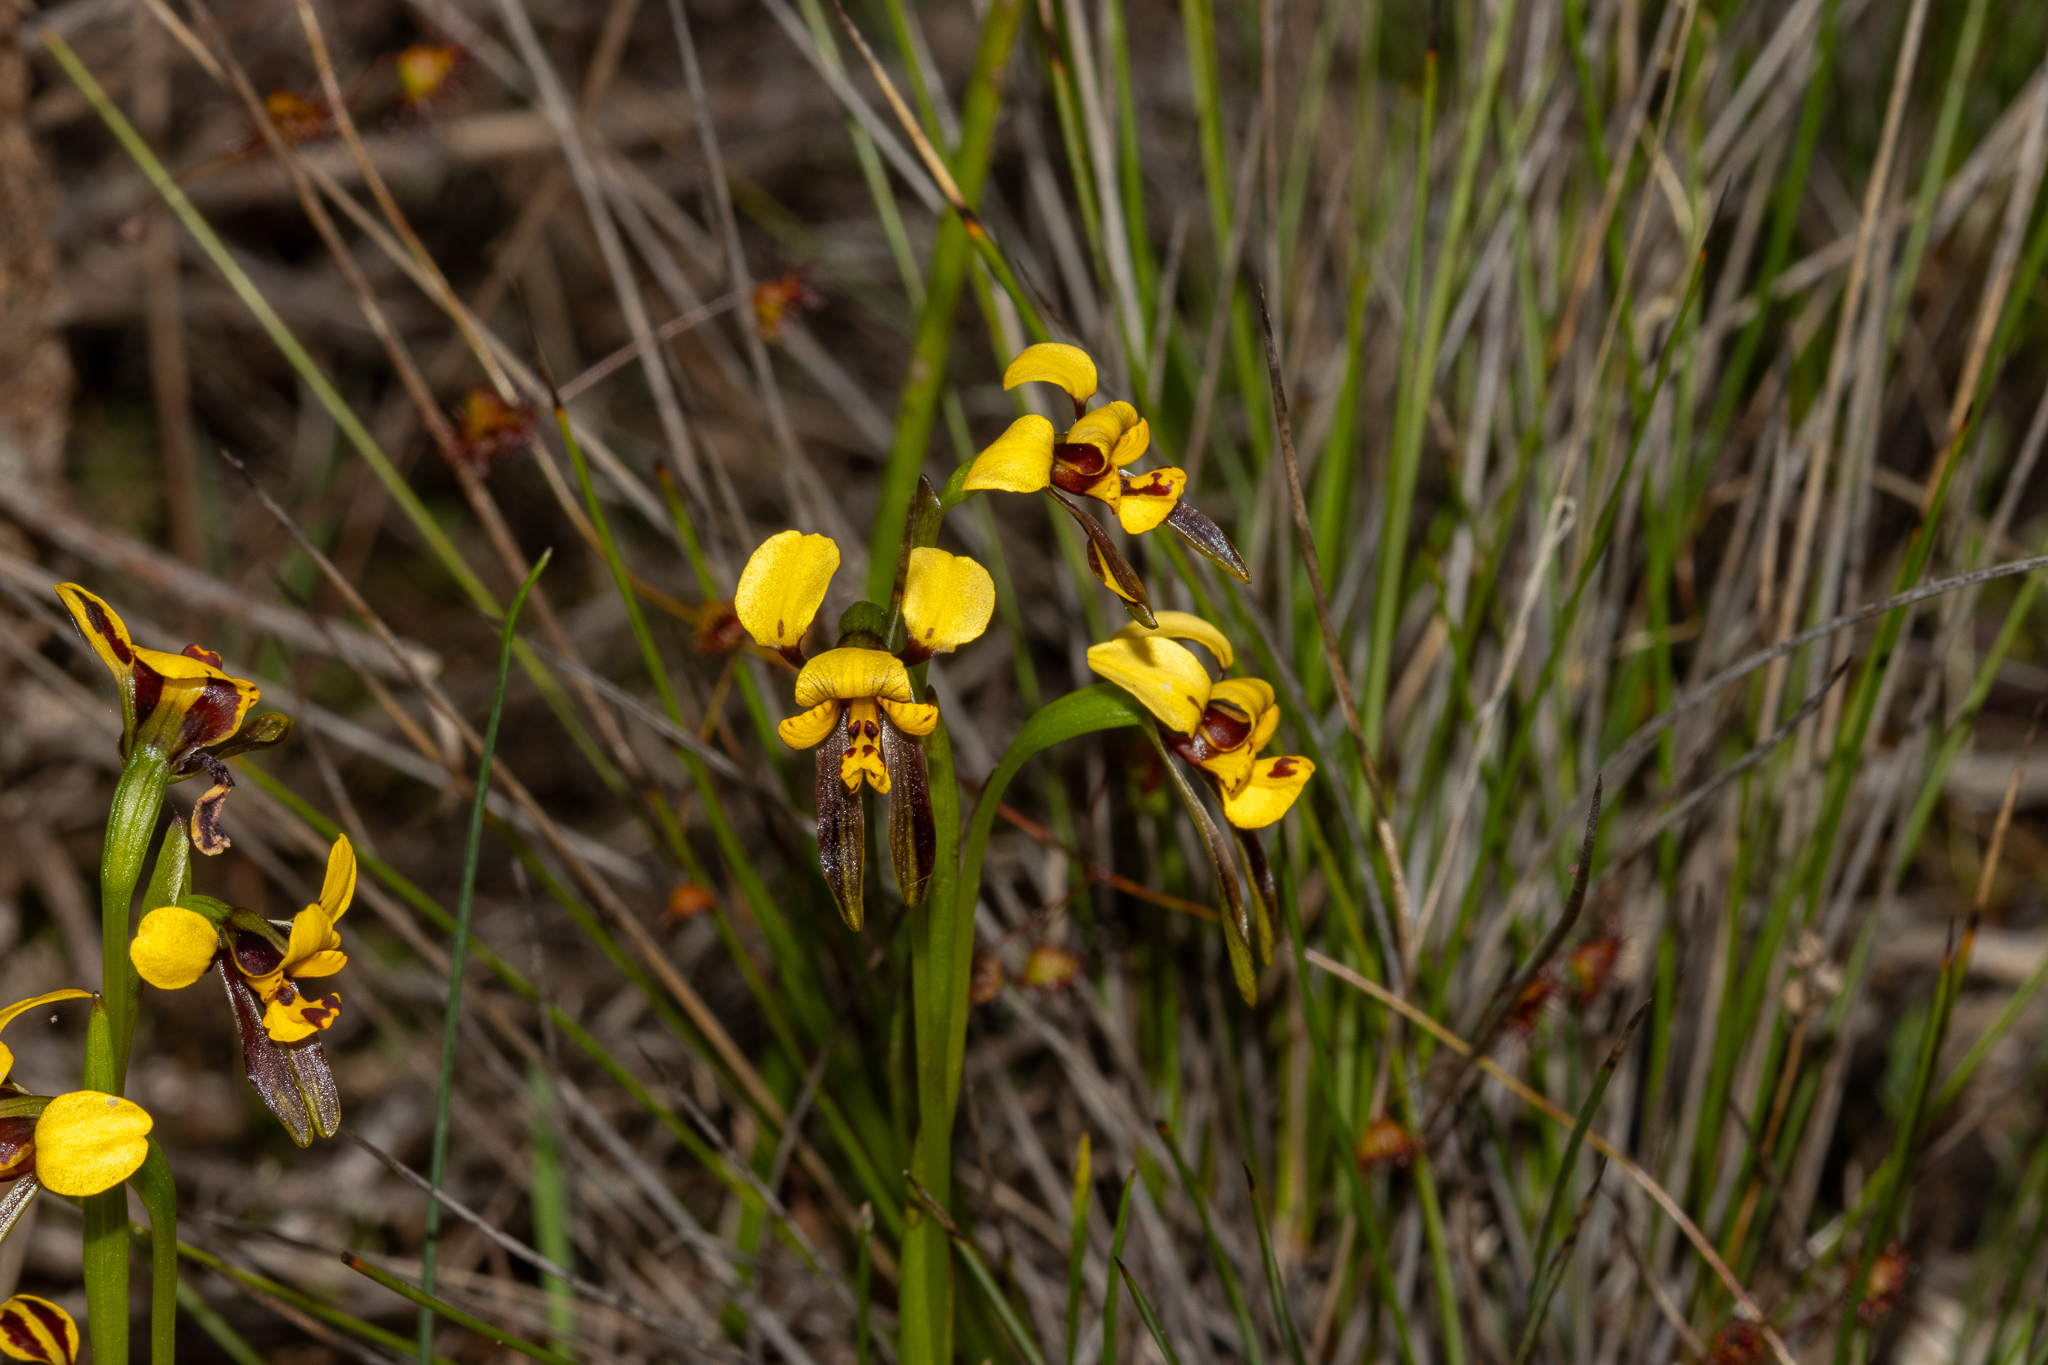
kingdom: Plantae
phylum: Tracheophyta
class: Liliopsida
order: Asparagales
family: Orchidaceae
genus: Diuris
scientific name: Diuris palustris
